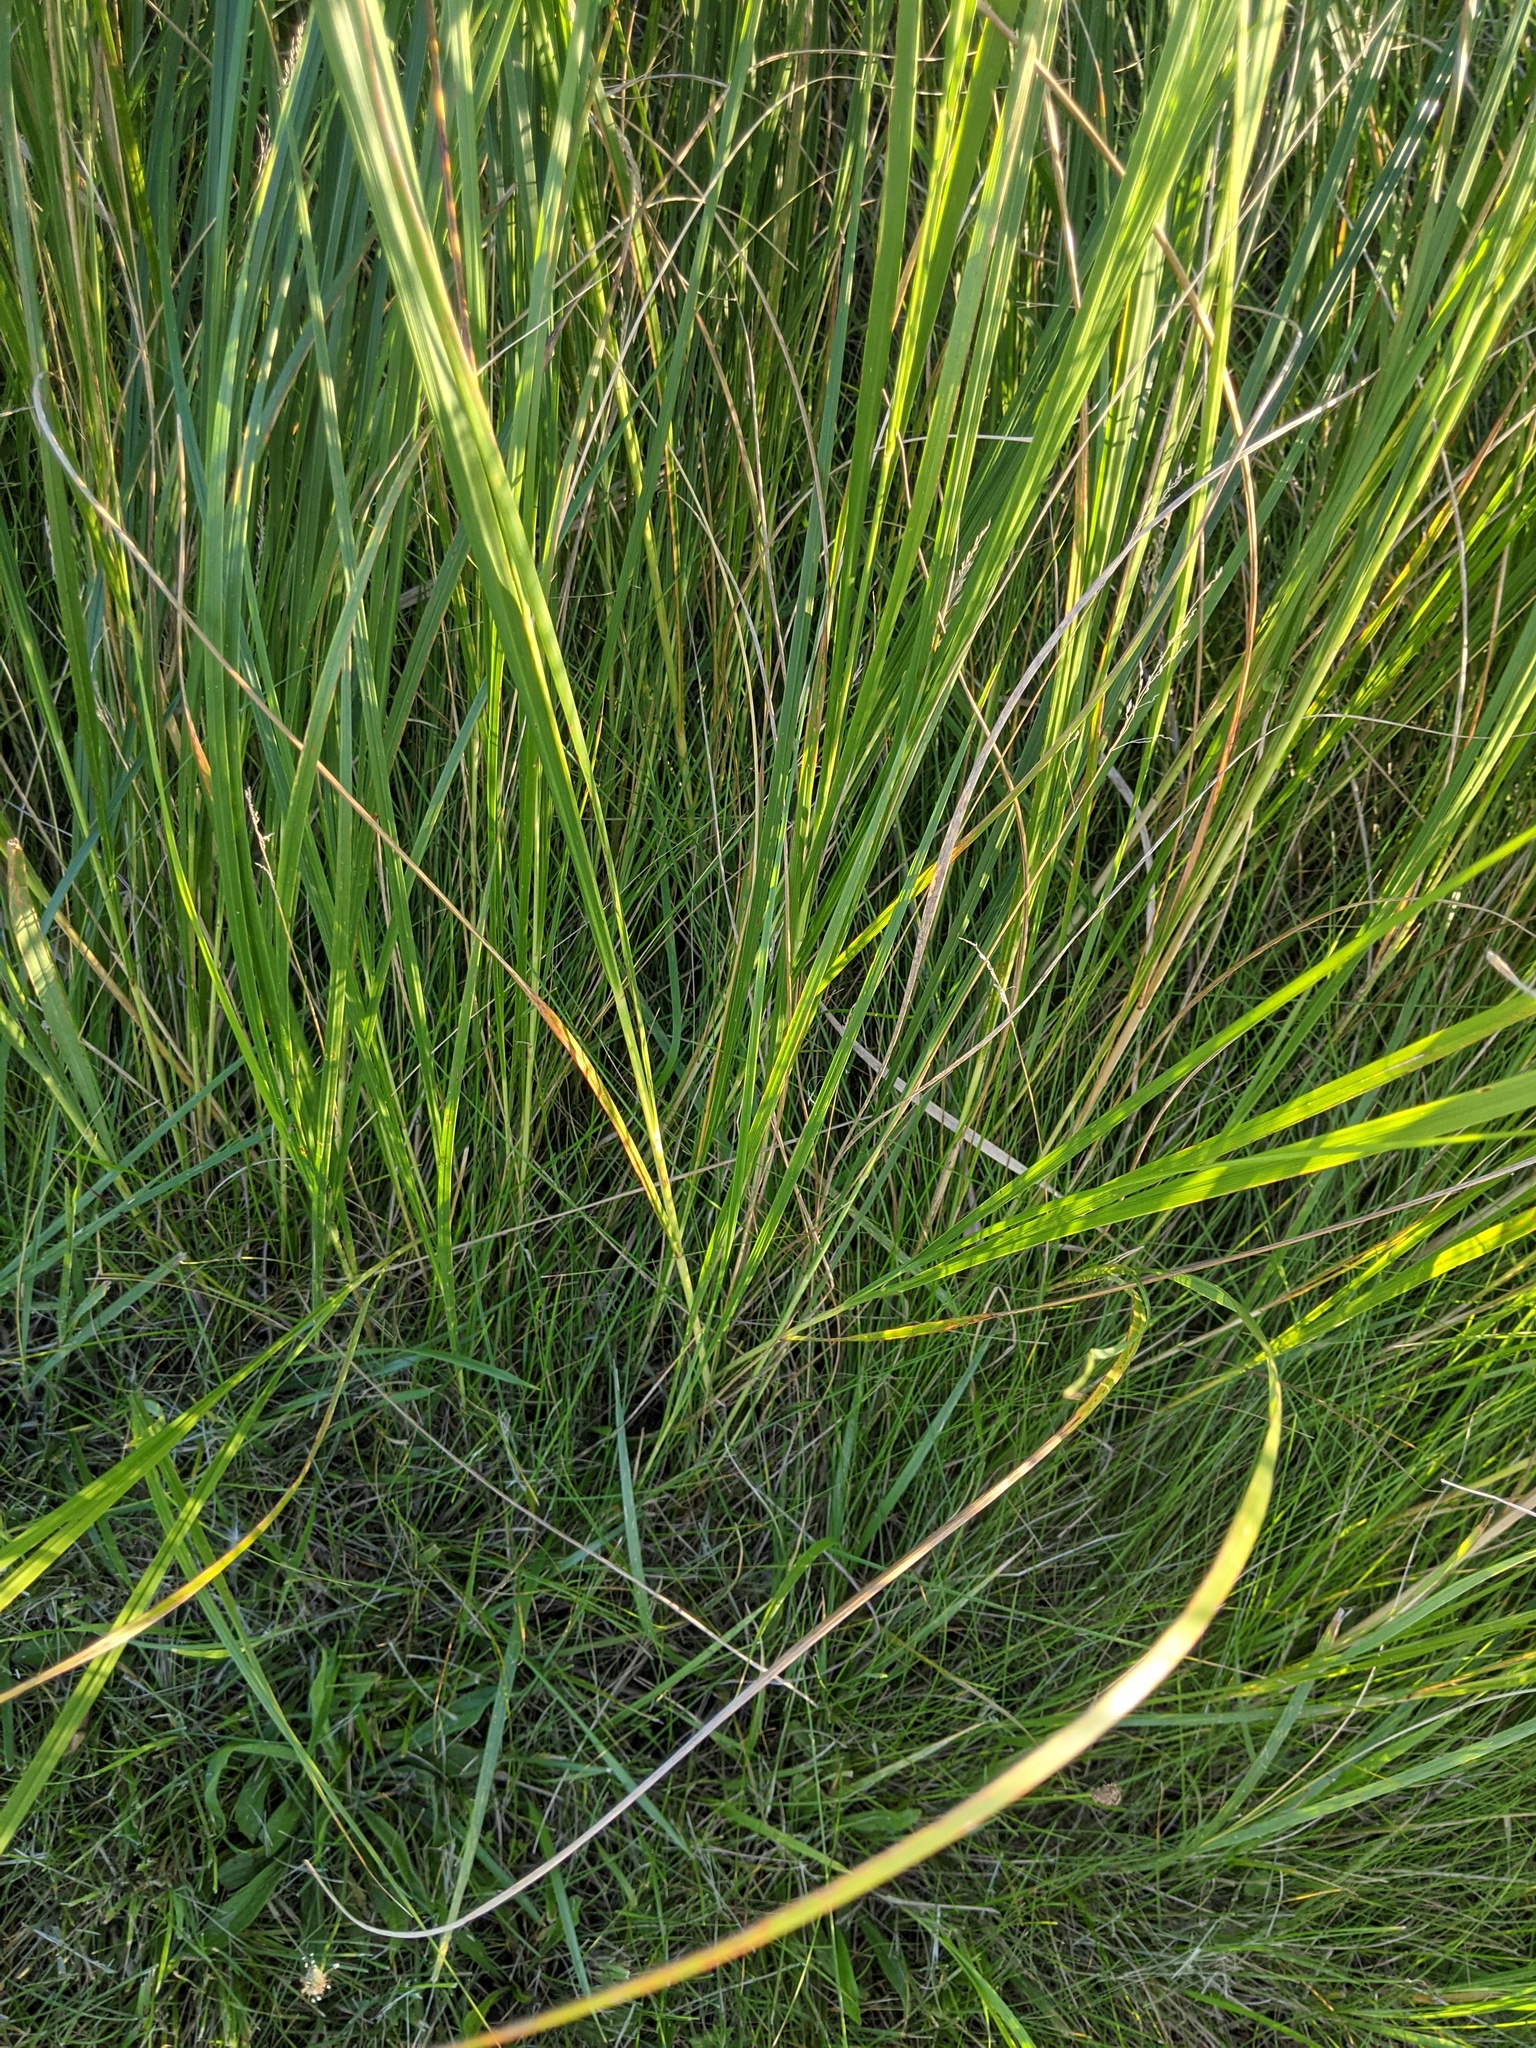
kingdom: Plantae
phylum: Tracheophyta
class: Liliopsida
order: Poales
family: Poaceae
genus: Sporobolus
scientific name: Sporobolus michauxianus
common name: Freshwater cordgrass
